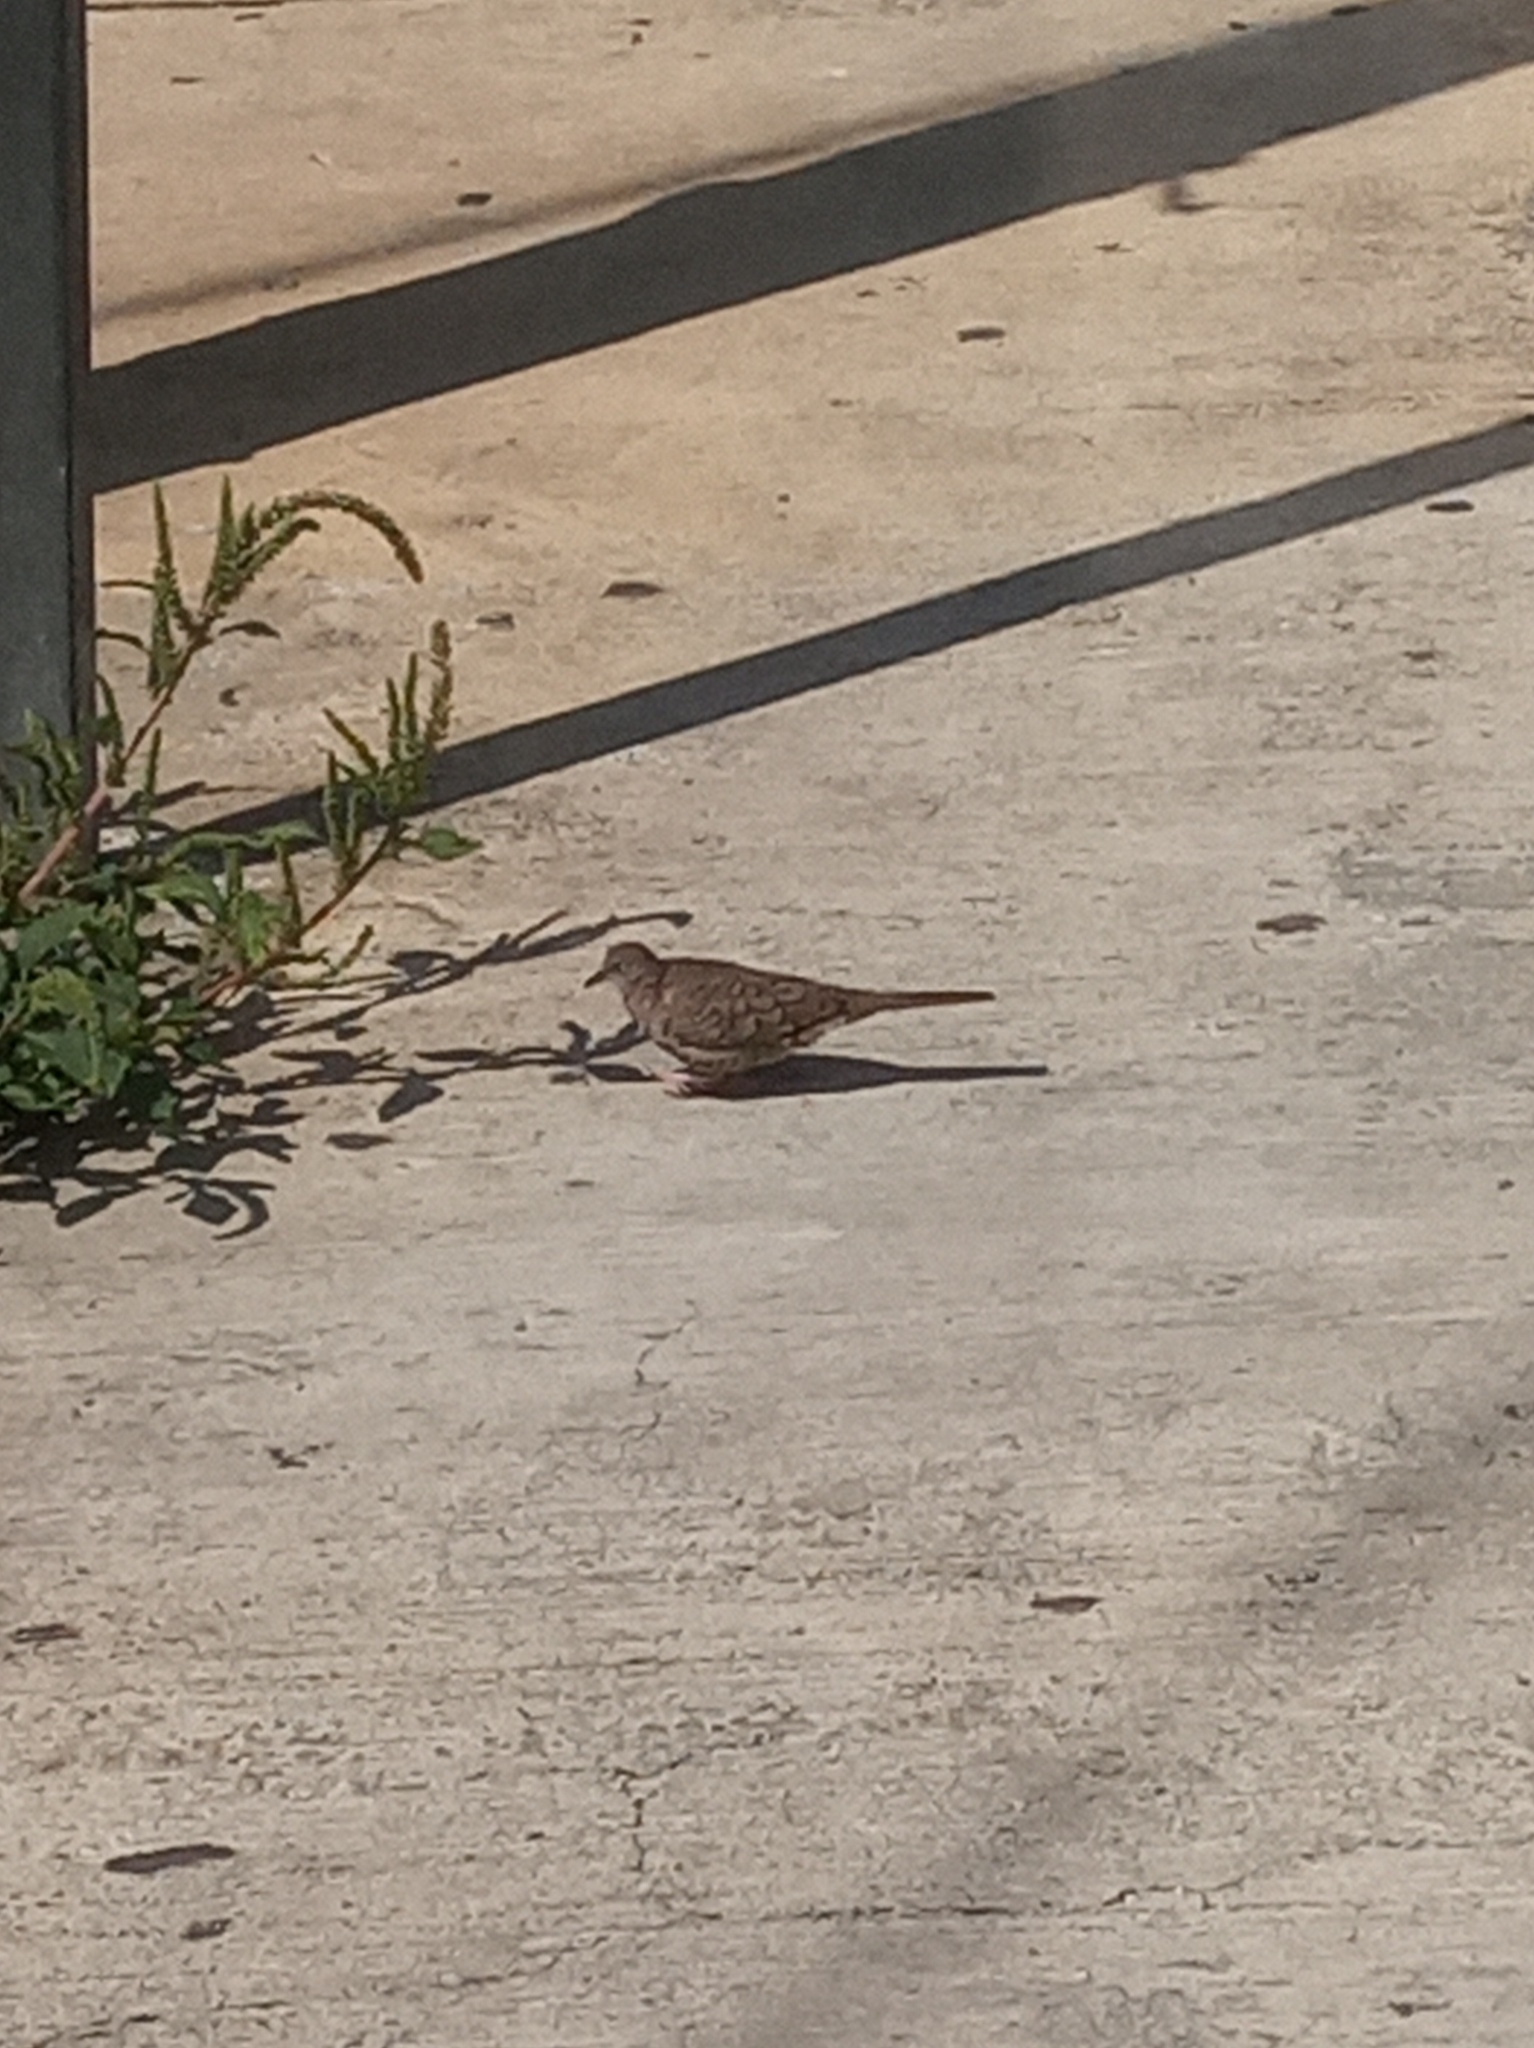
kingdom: Animalia
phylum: Chordata
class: Aves
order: Columbiformes
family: Columbidae
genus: Columbina
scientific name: Columbina inca
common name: Inca dove
